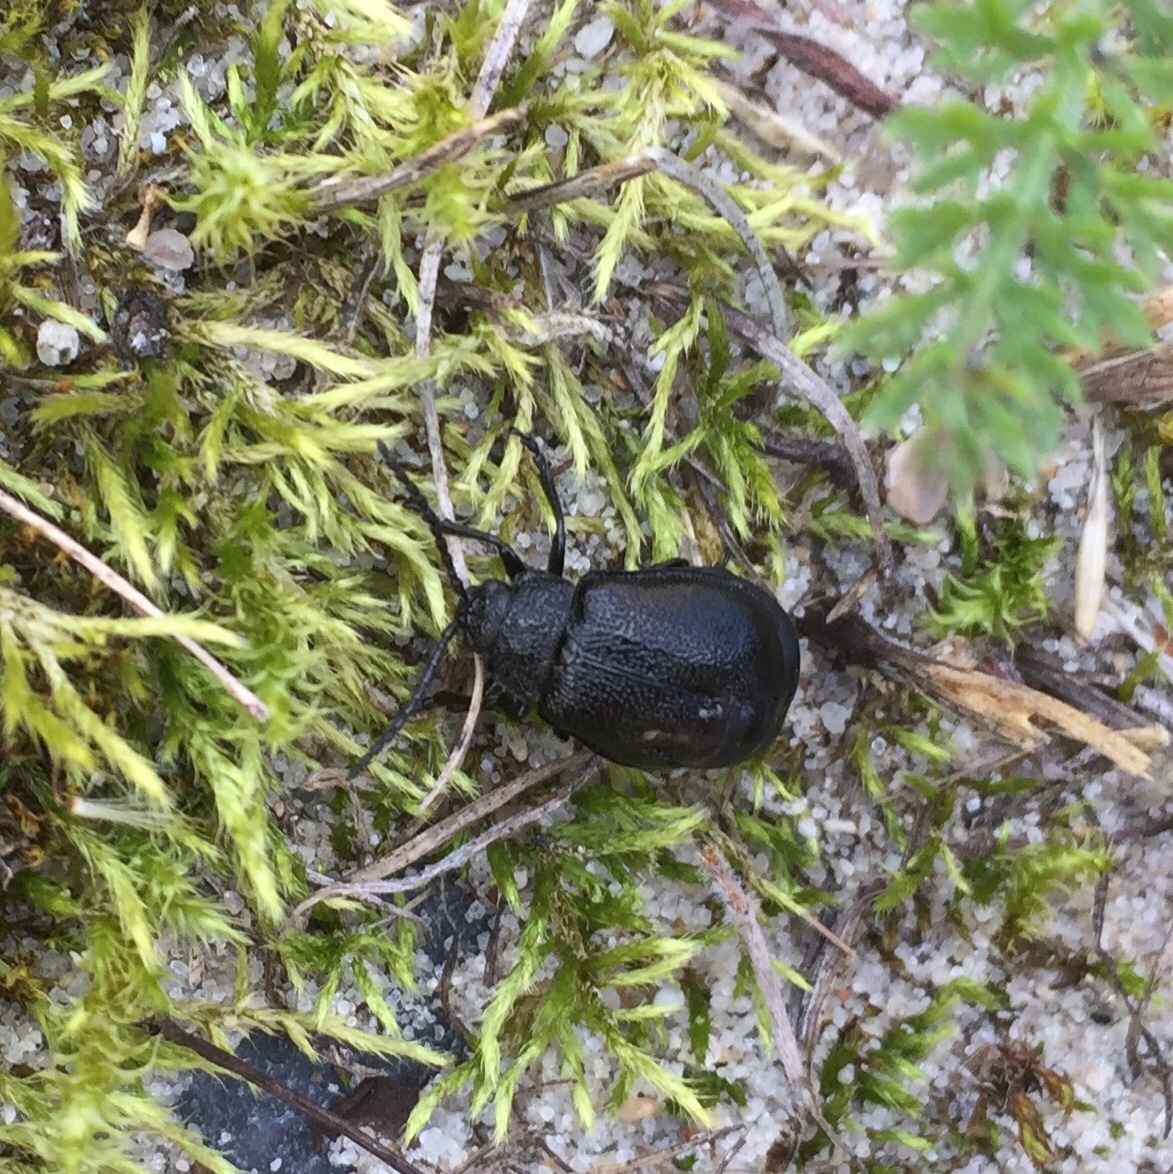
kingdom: Animalia
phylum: Arthropoda
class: Insecta
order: Coleoptera
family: Chrysomelidae
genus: Galeruca
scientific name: Galeruca tanaceti
